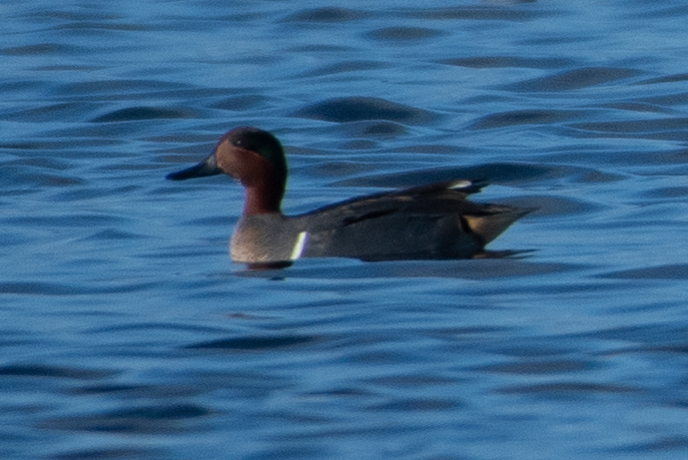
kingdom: Animalia
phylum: Chordata
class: Aves
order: Anseriformes
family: Anatidae
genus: Anas
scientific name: Anas crecca
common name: Eurasian teal
